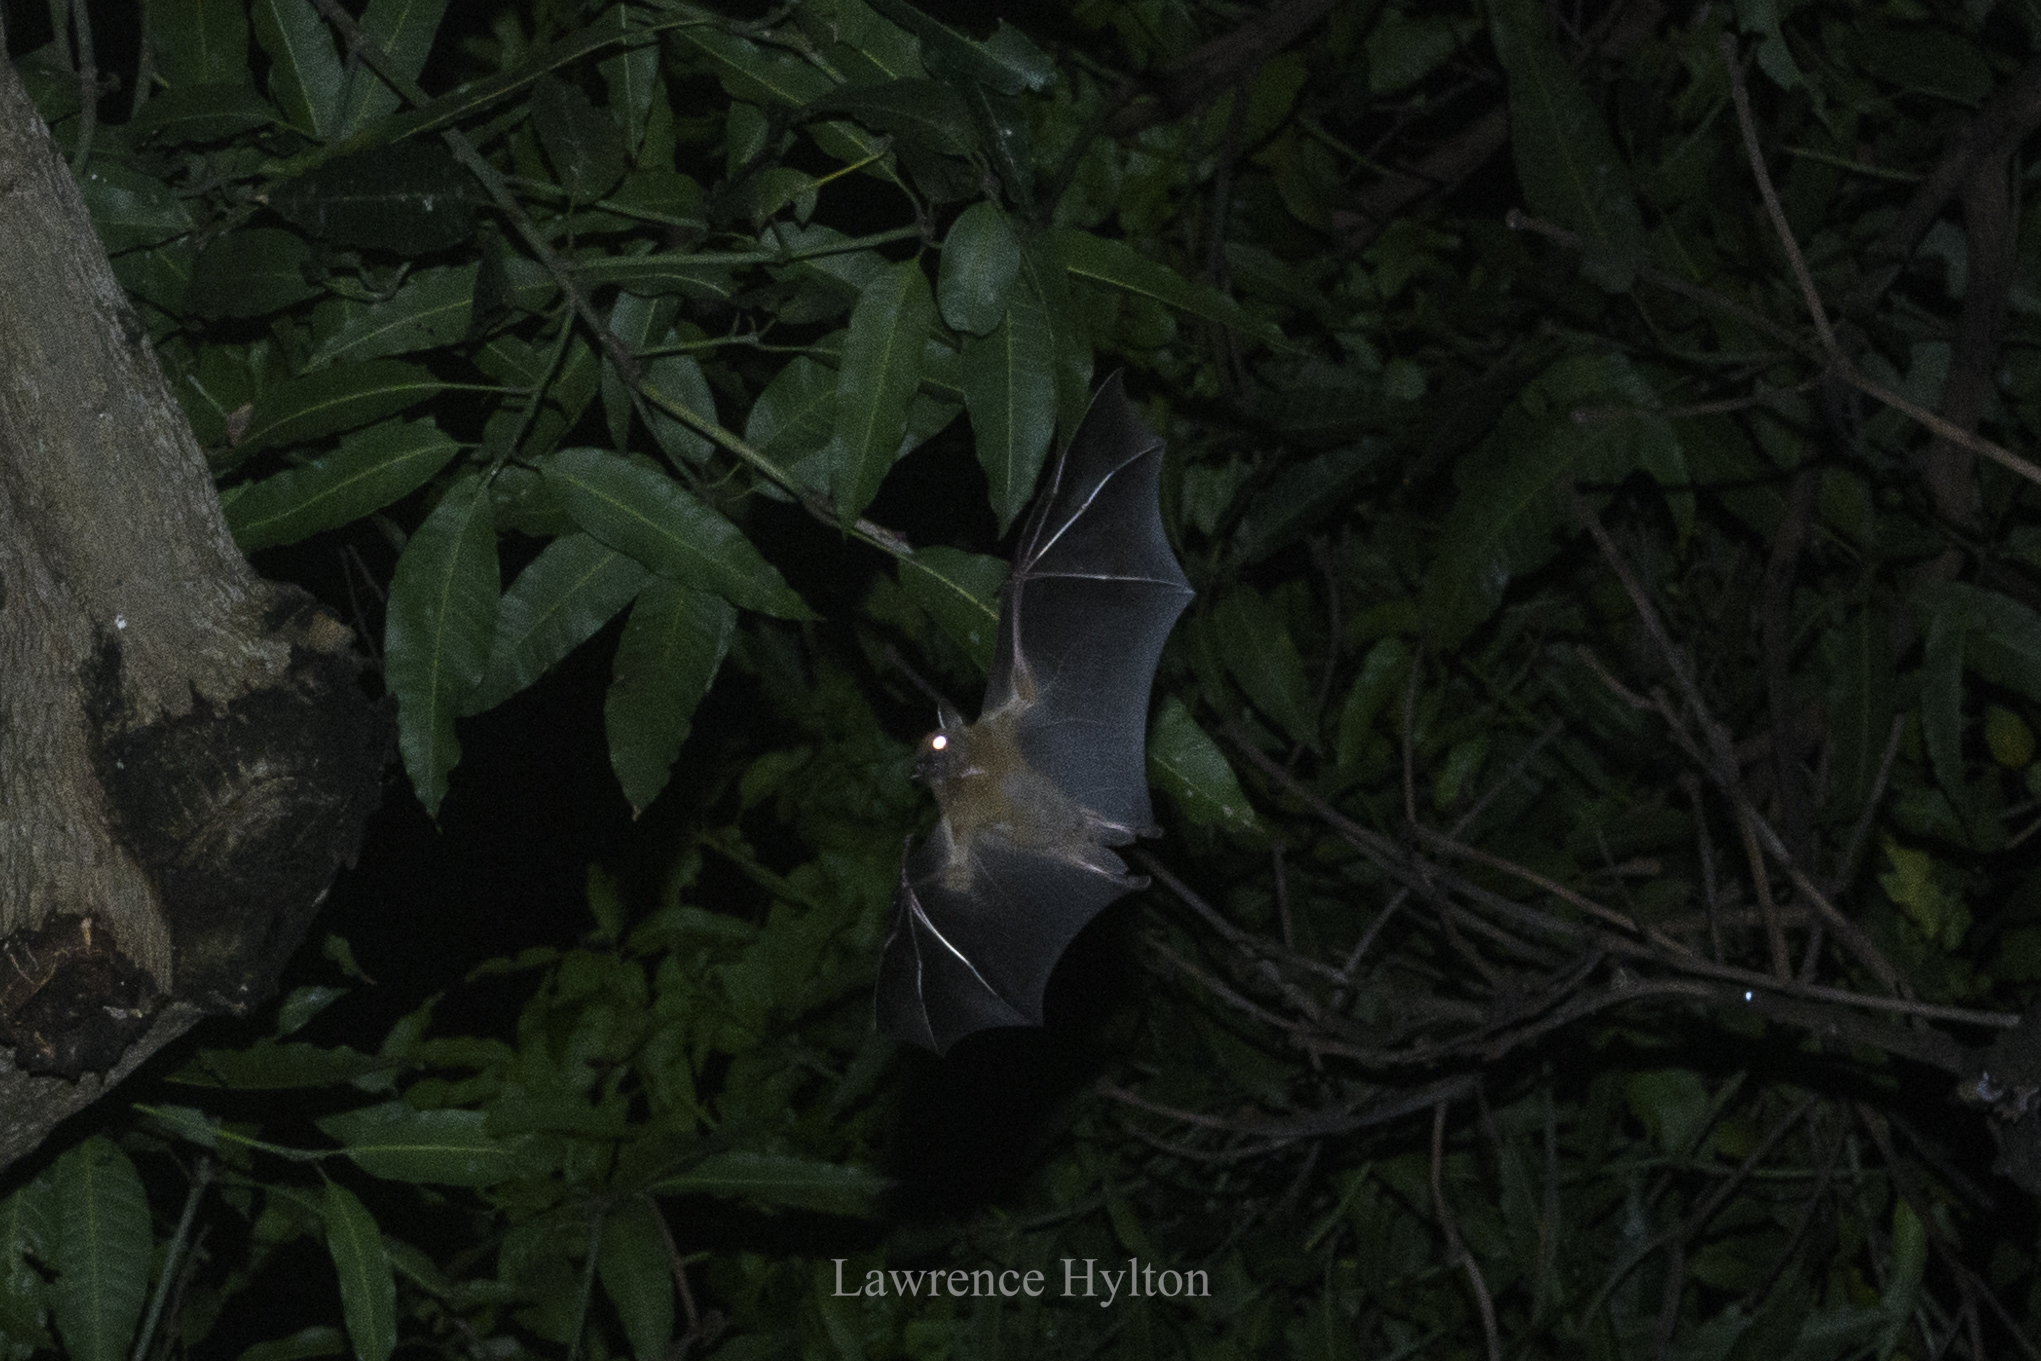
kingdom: Animalia
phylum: Chordata
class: Mammalia
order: Chiroptera
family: Pteropodidae
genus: Cynopterus
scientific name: Cynopterus sphinx
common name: Greater short-nosed fruit bat
